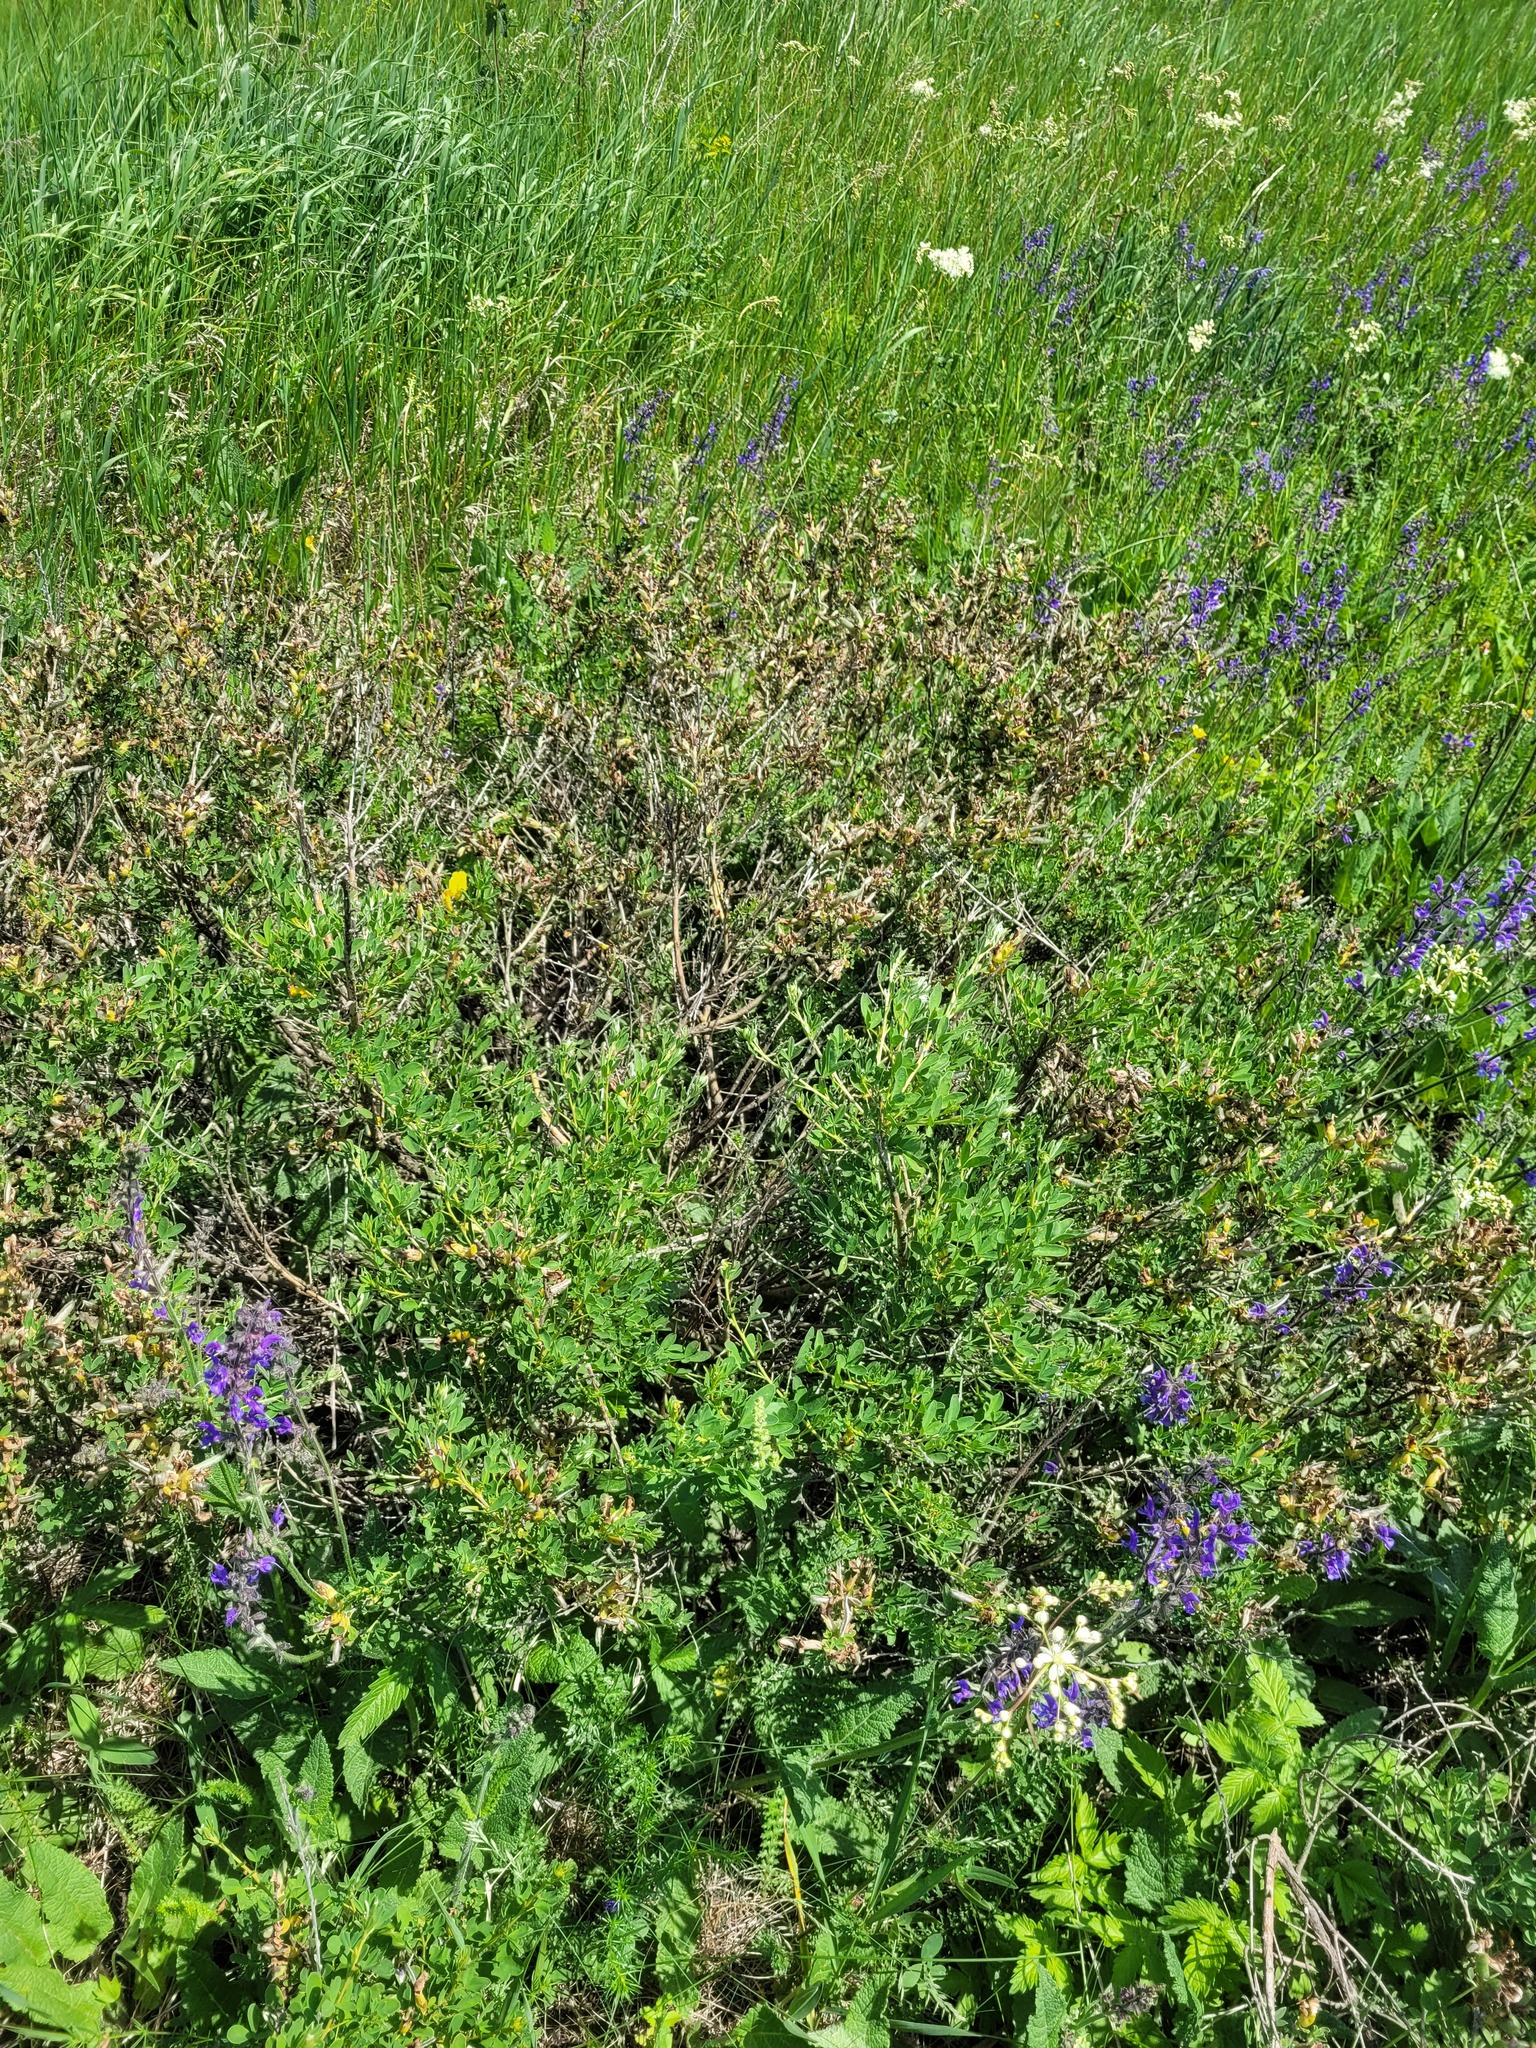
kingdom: Plantae
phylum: Tracheophyta
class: Magnoliopsida
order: Fabales
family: Fabaceae
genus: Chamaecytisus
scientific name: Chamaecytisus ruthenicus
